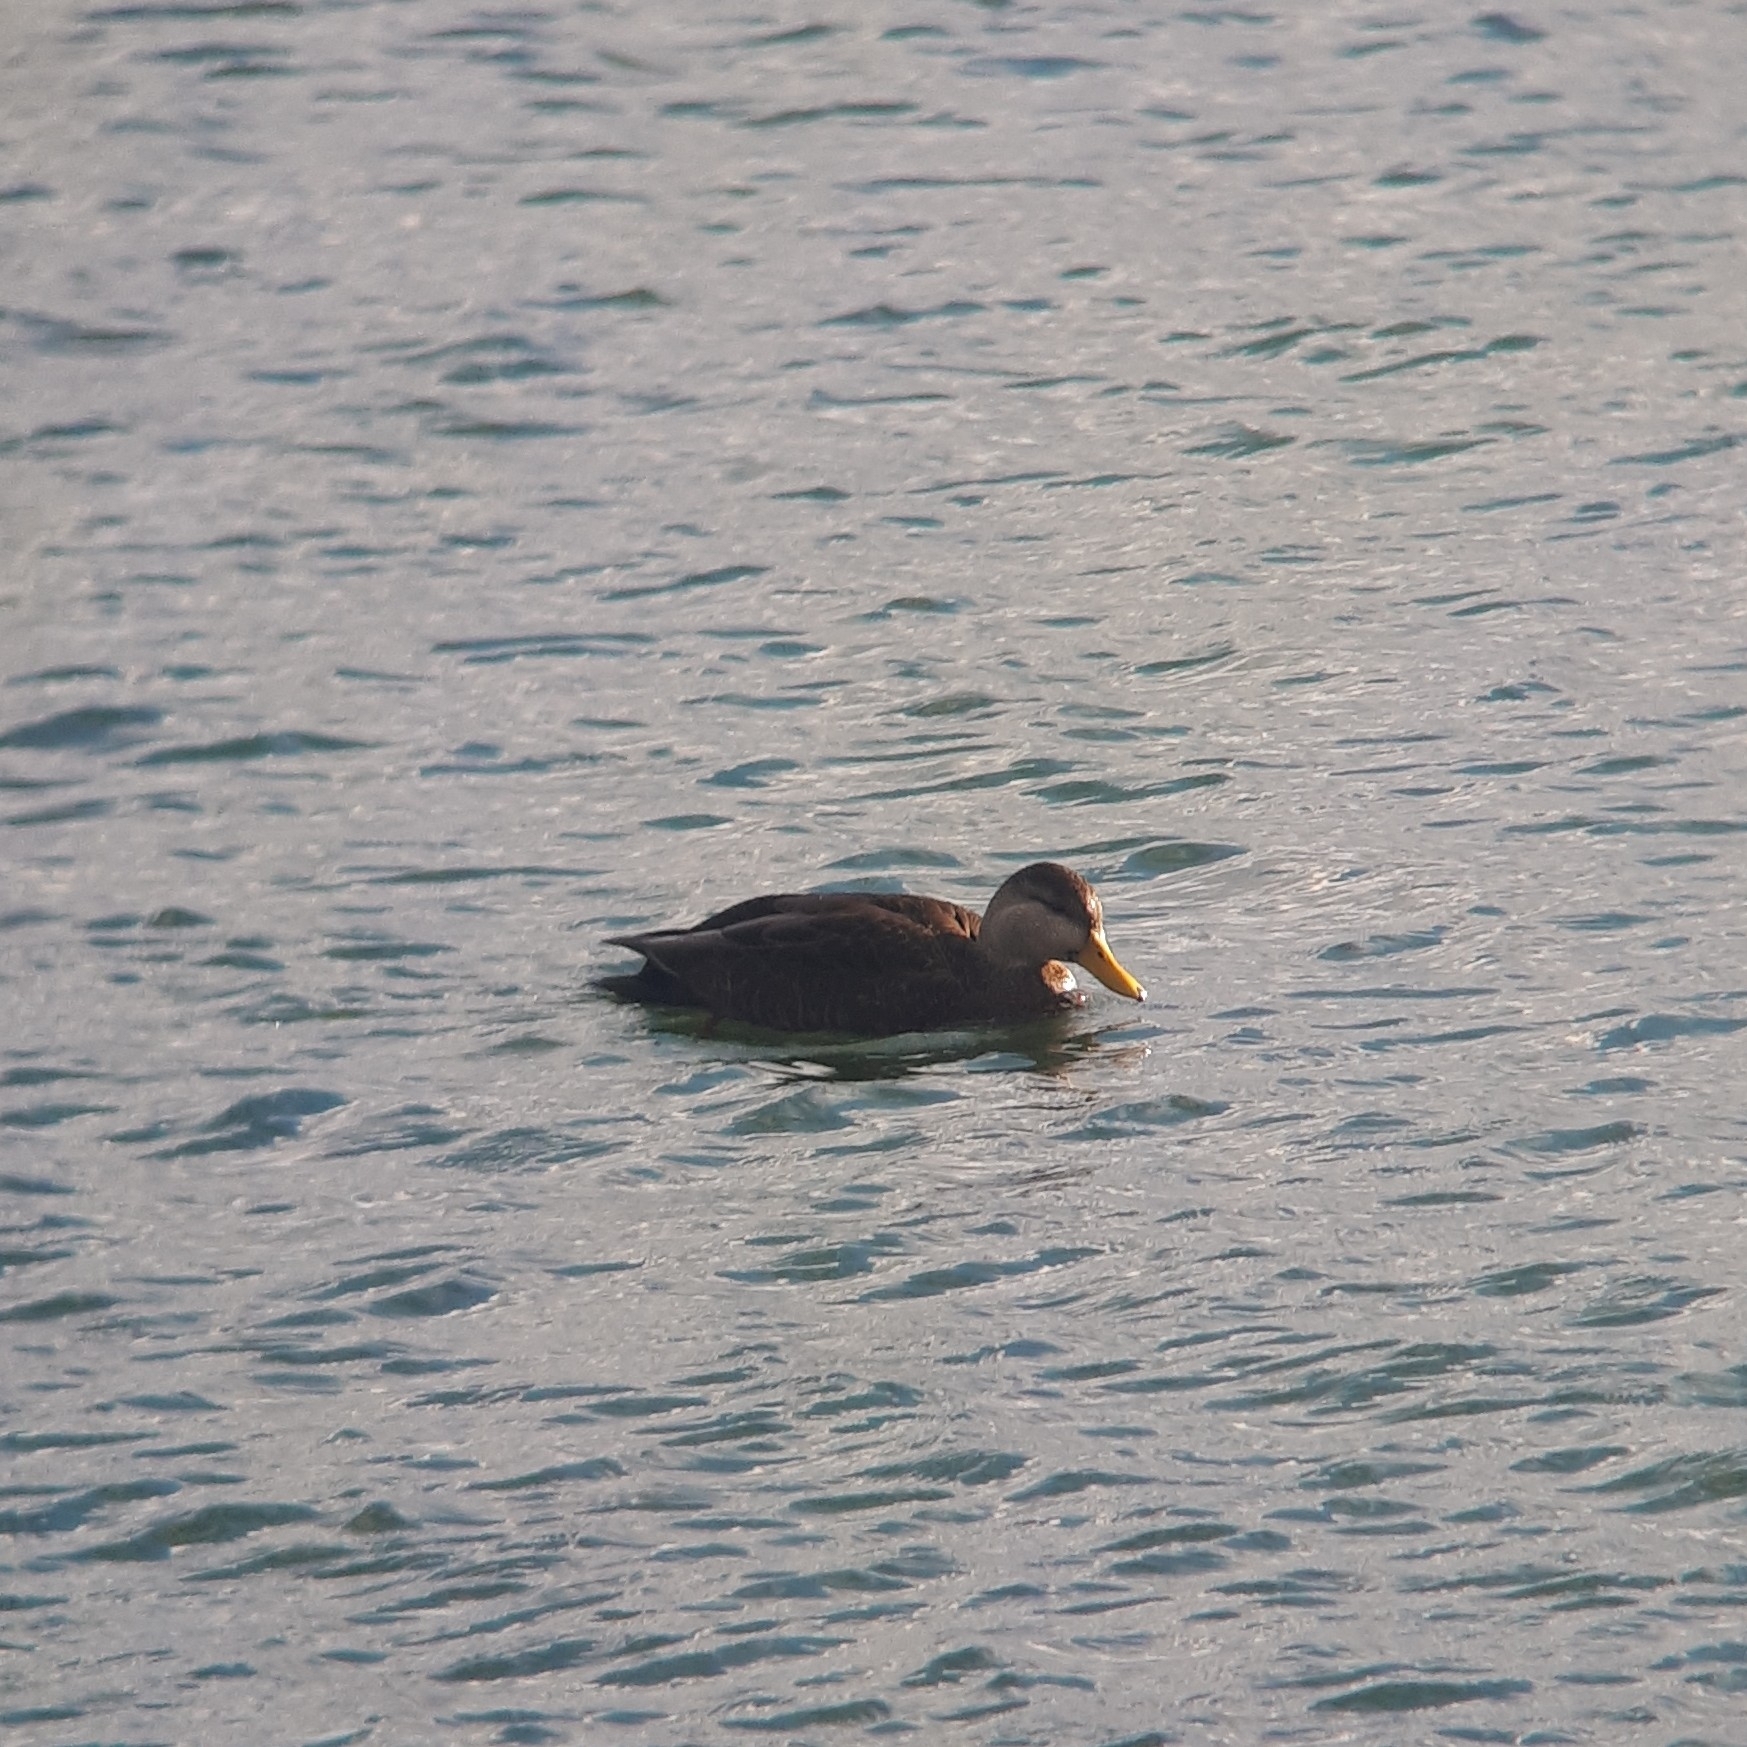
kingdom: Animalia
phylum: Chordata
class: Aves
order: Anseriformes
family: Anatidae
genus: Anas
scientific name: Anas rubripes
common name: American black duck
